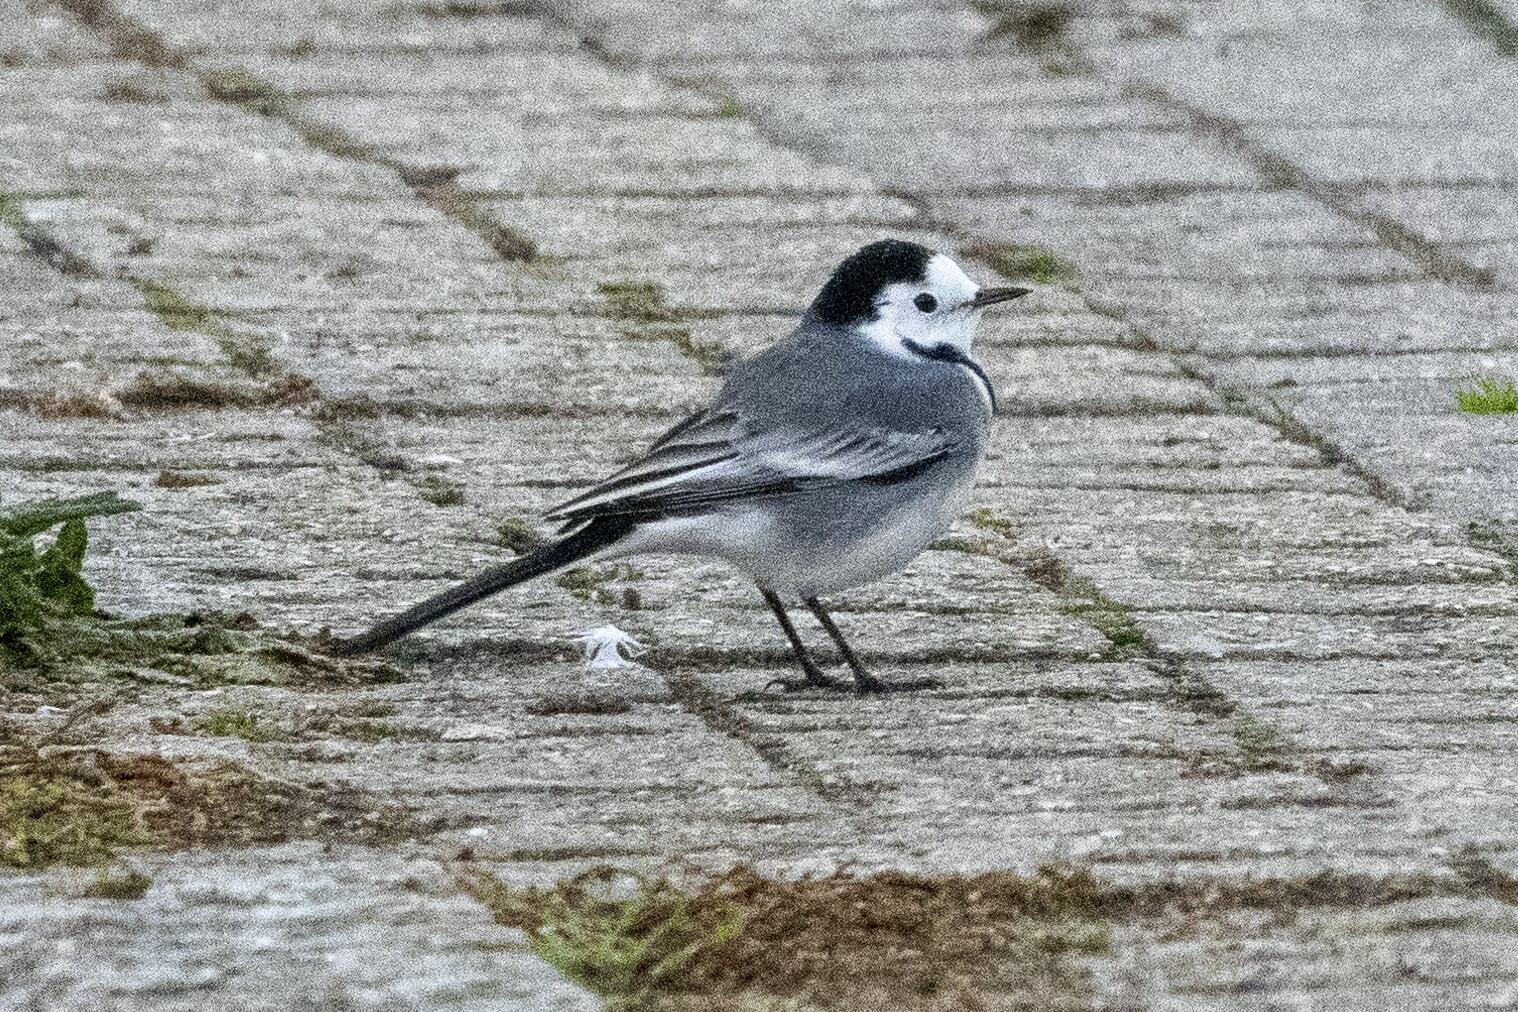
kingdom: Animalia
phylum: Chordata
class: Aves
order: Passeriformes
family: Motacillidae
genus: Motacilla
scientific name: Motacilla alba
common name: White wagtail
